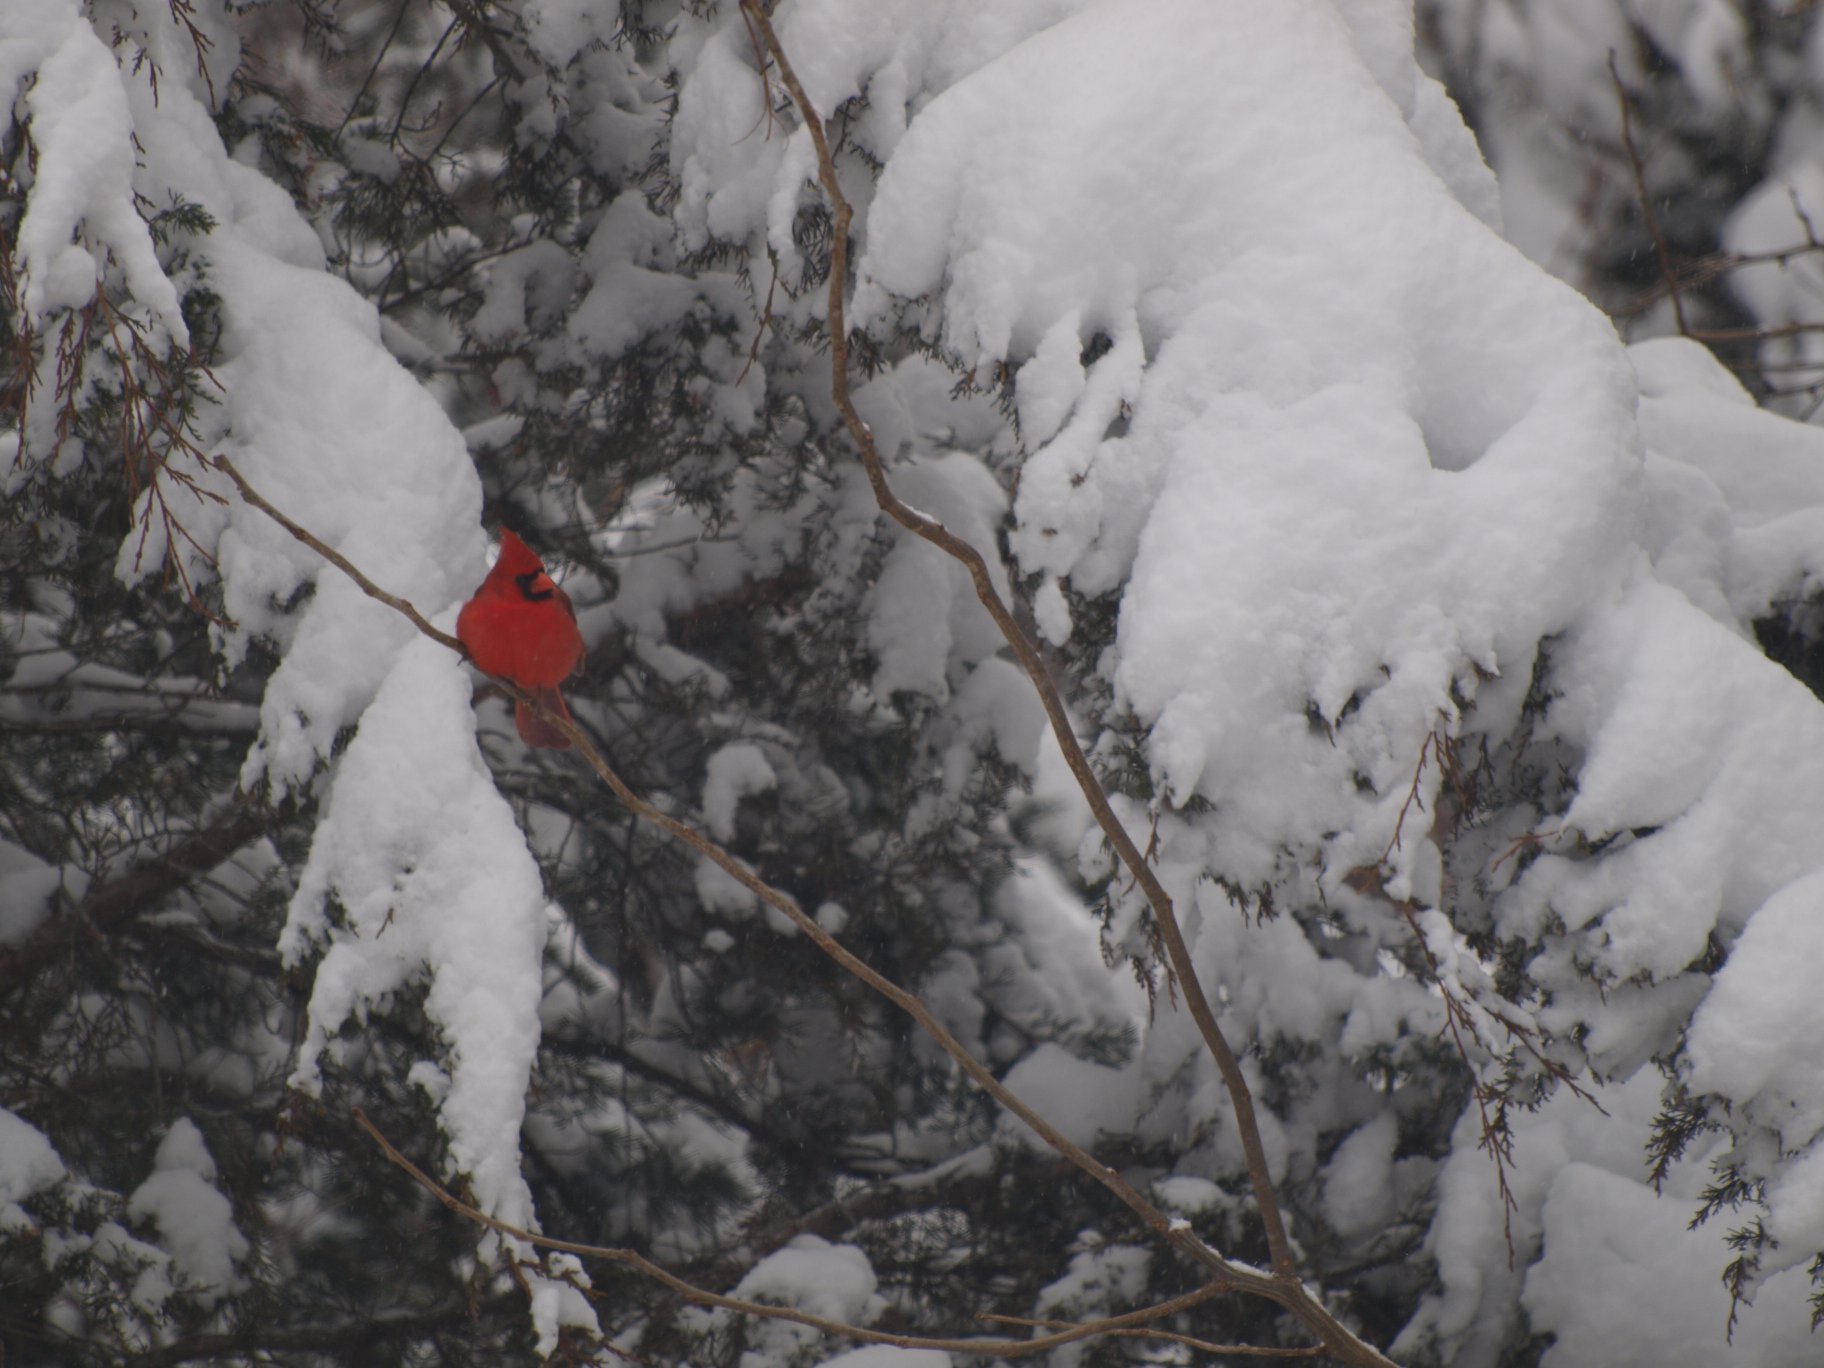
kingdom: Animalia
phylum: Chordata
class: Aves
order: Passeriformes
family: Cardinalidae
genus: Cardinalis
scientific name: Cardinalis cardinalis
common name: Northern cardinal
